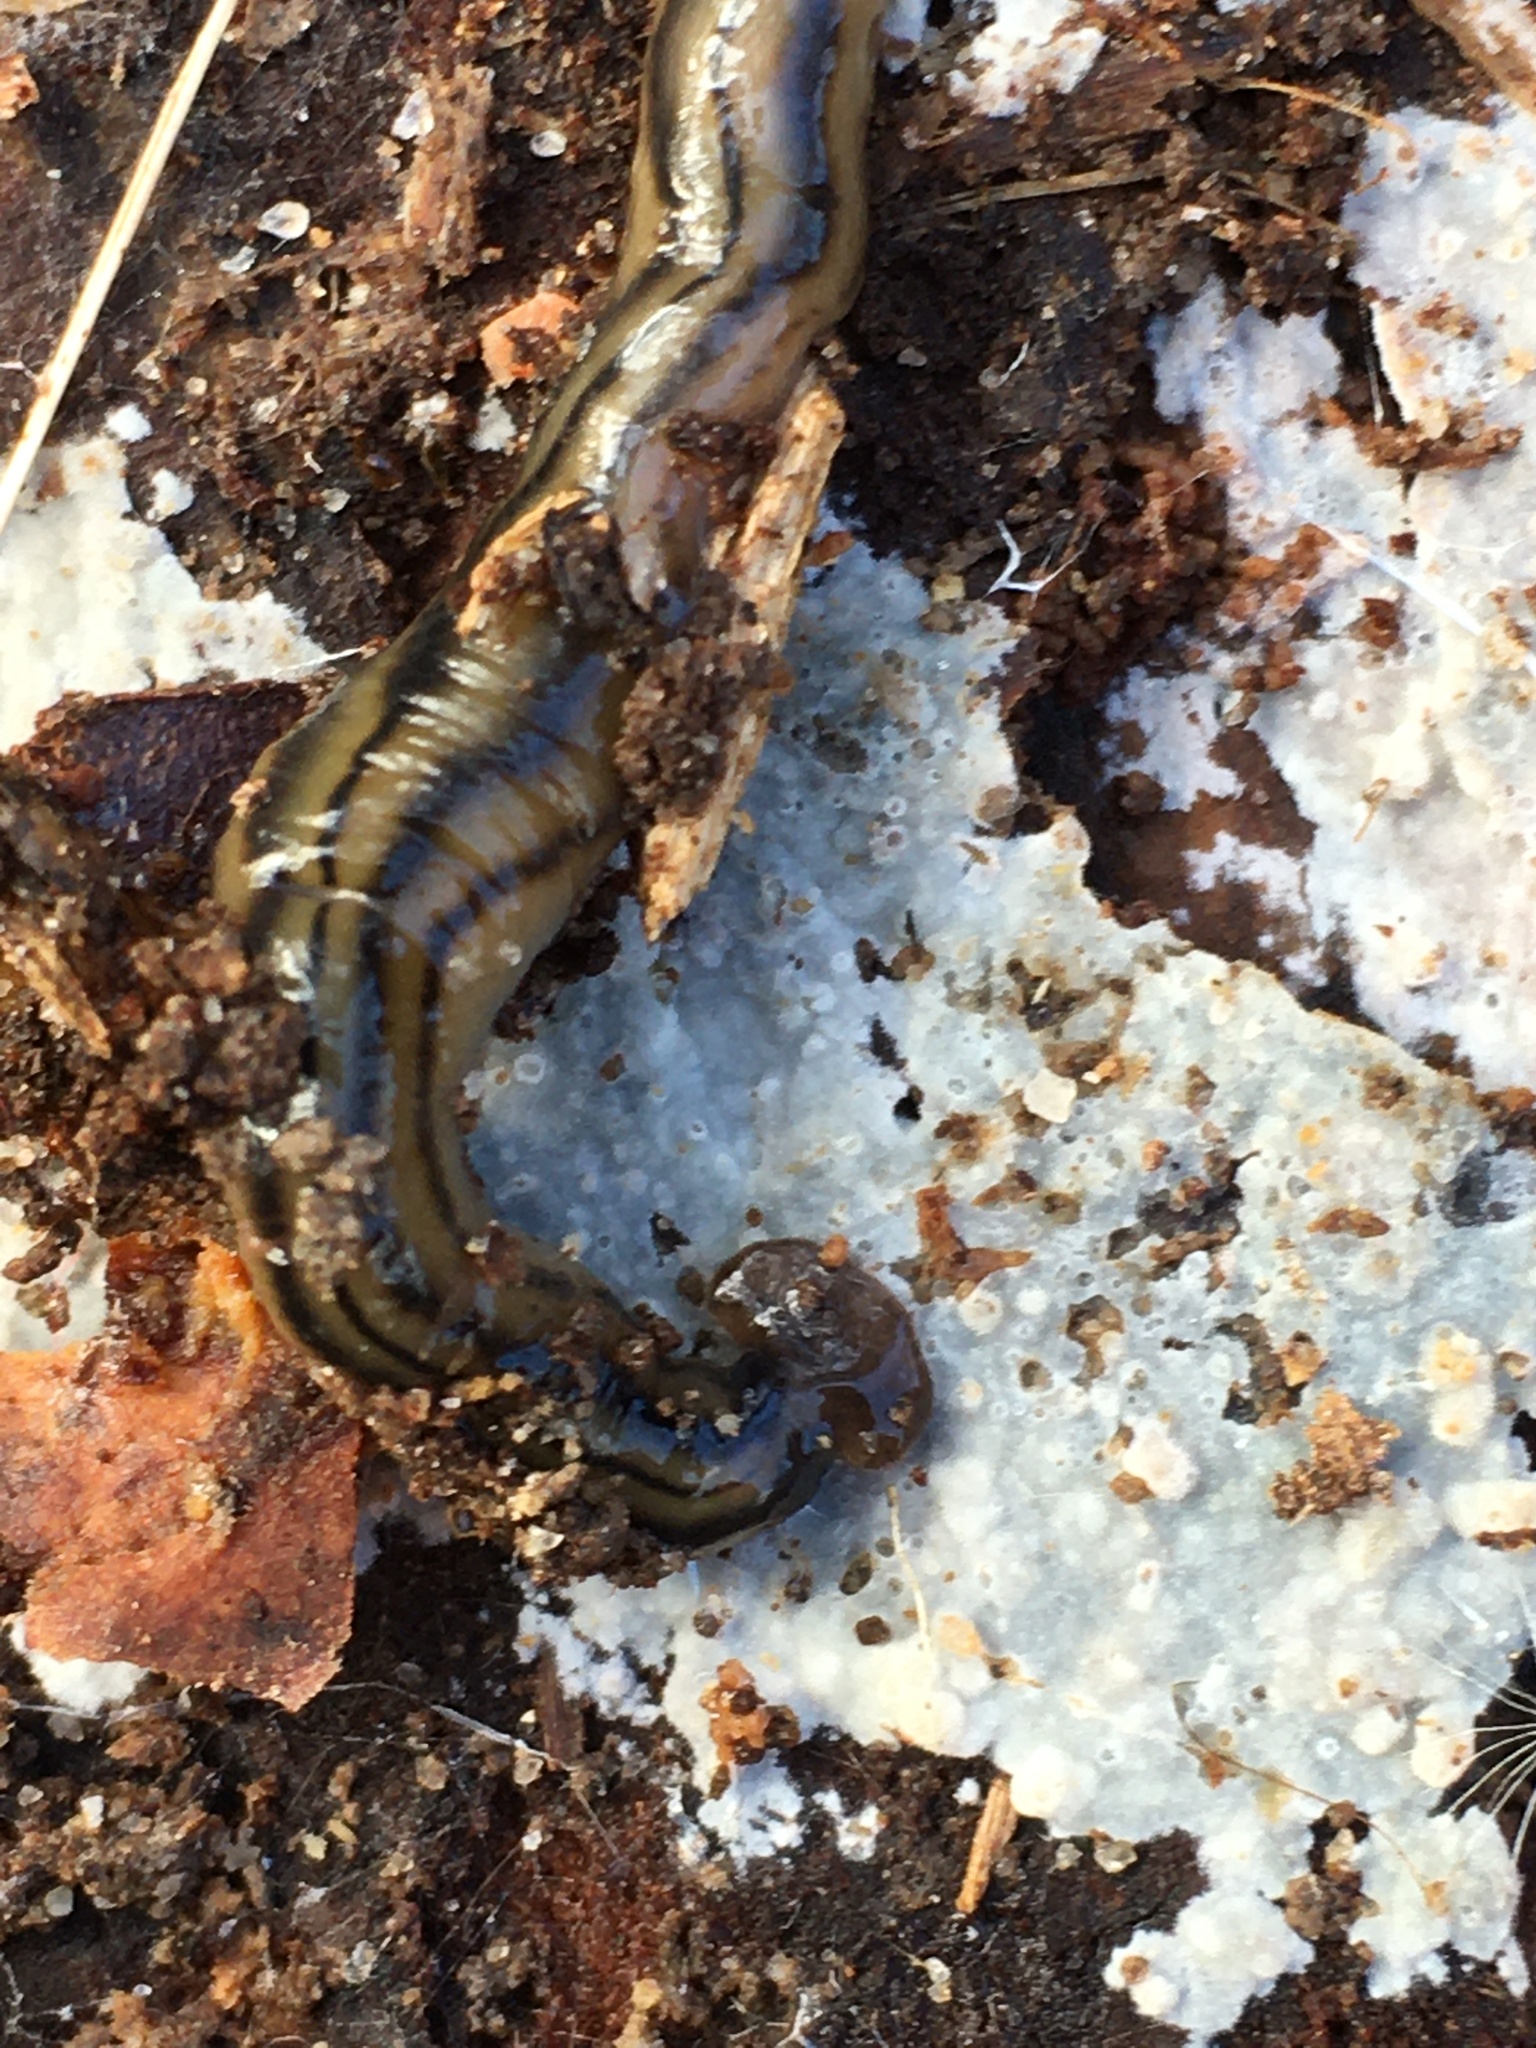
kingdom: Animalia
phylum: Platyhelminthes
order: Tricladida
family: Geoplanidae
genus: Bipalium
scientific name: Bipalium kewense
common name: Hammerhead flatworm
